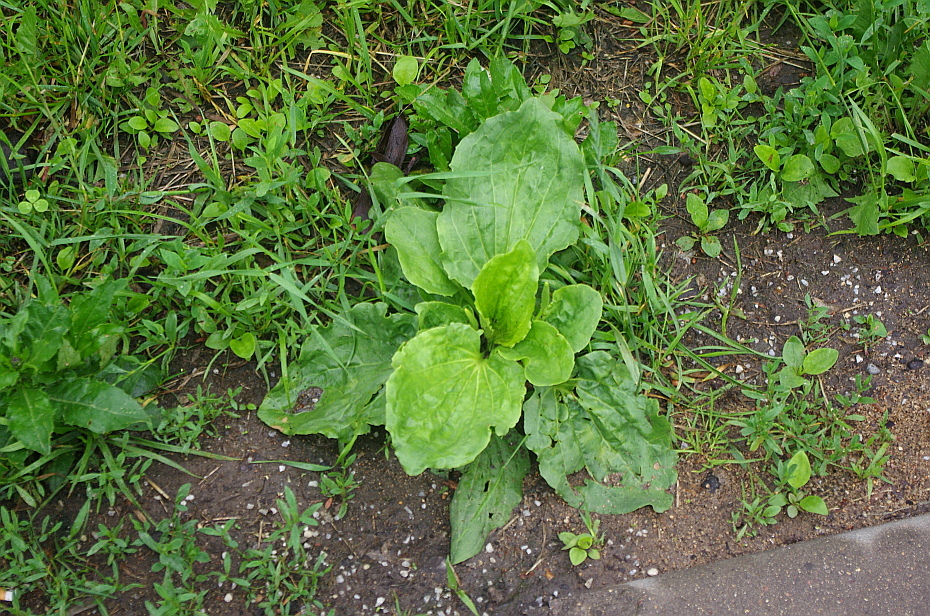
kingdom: Plantae
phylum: Tracheophyta
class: Magnoliopsida
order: Lamiales
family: Plantaginaceae
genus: Plantago
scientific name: Plantago major
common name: Common plantain
